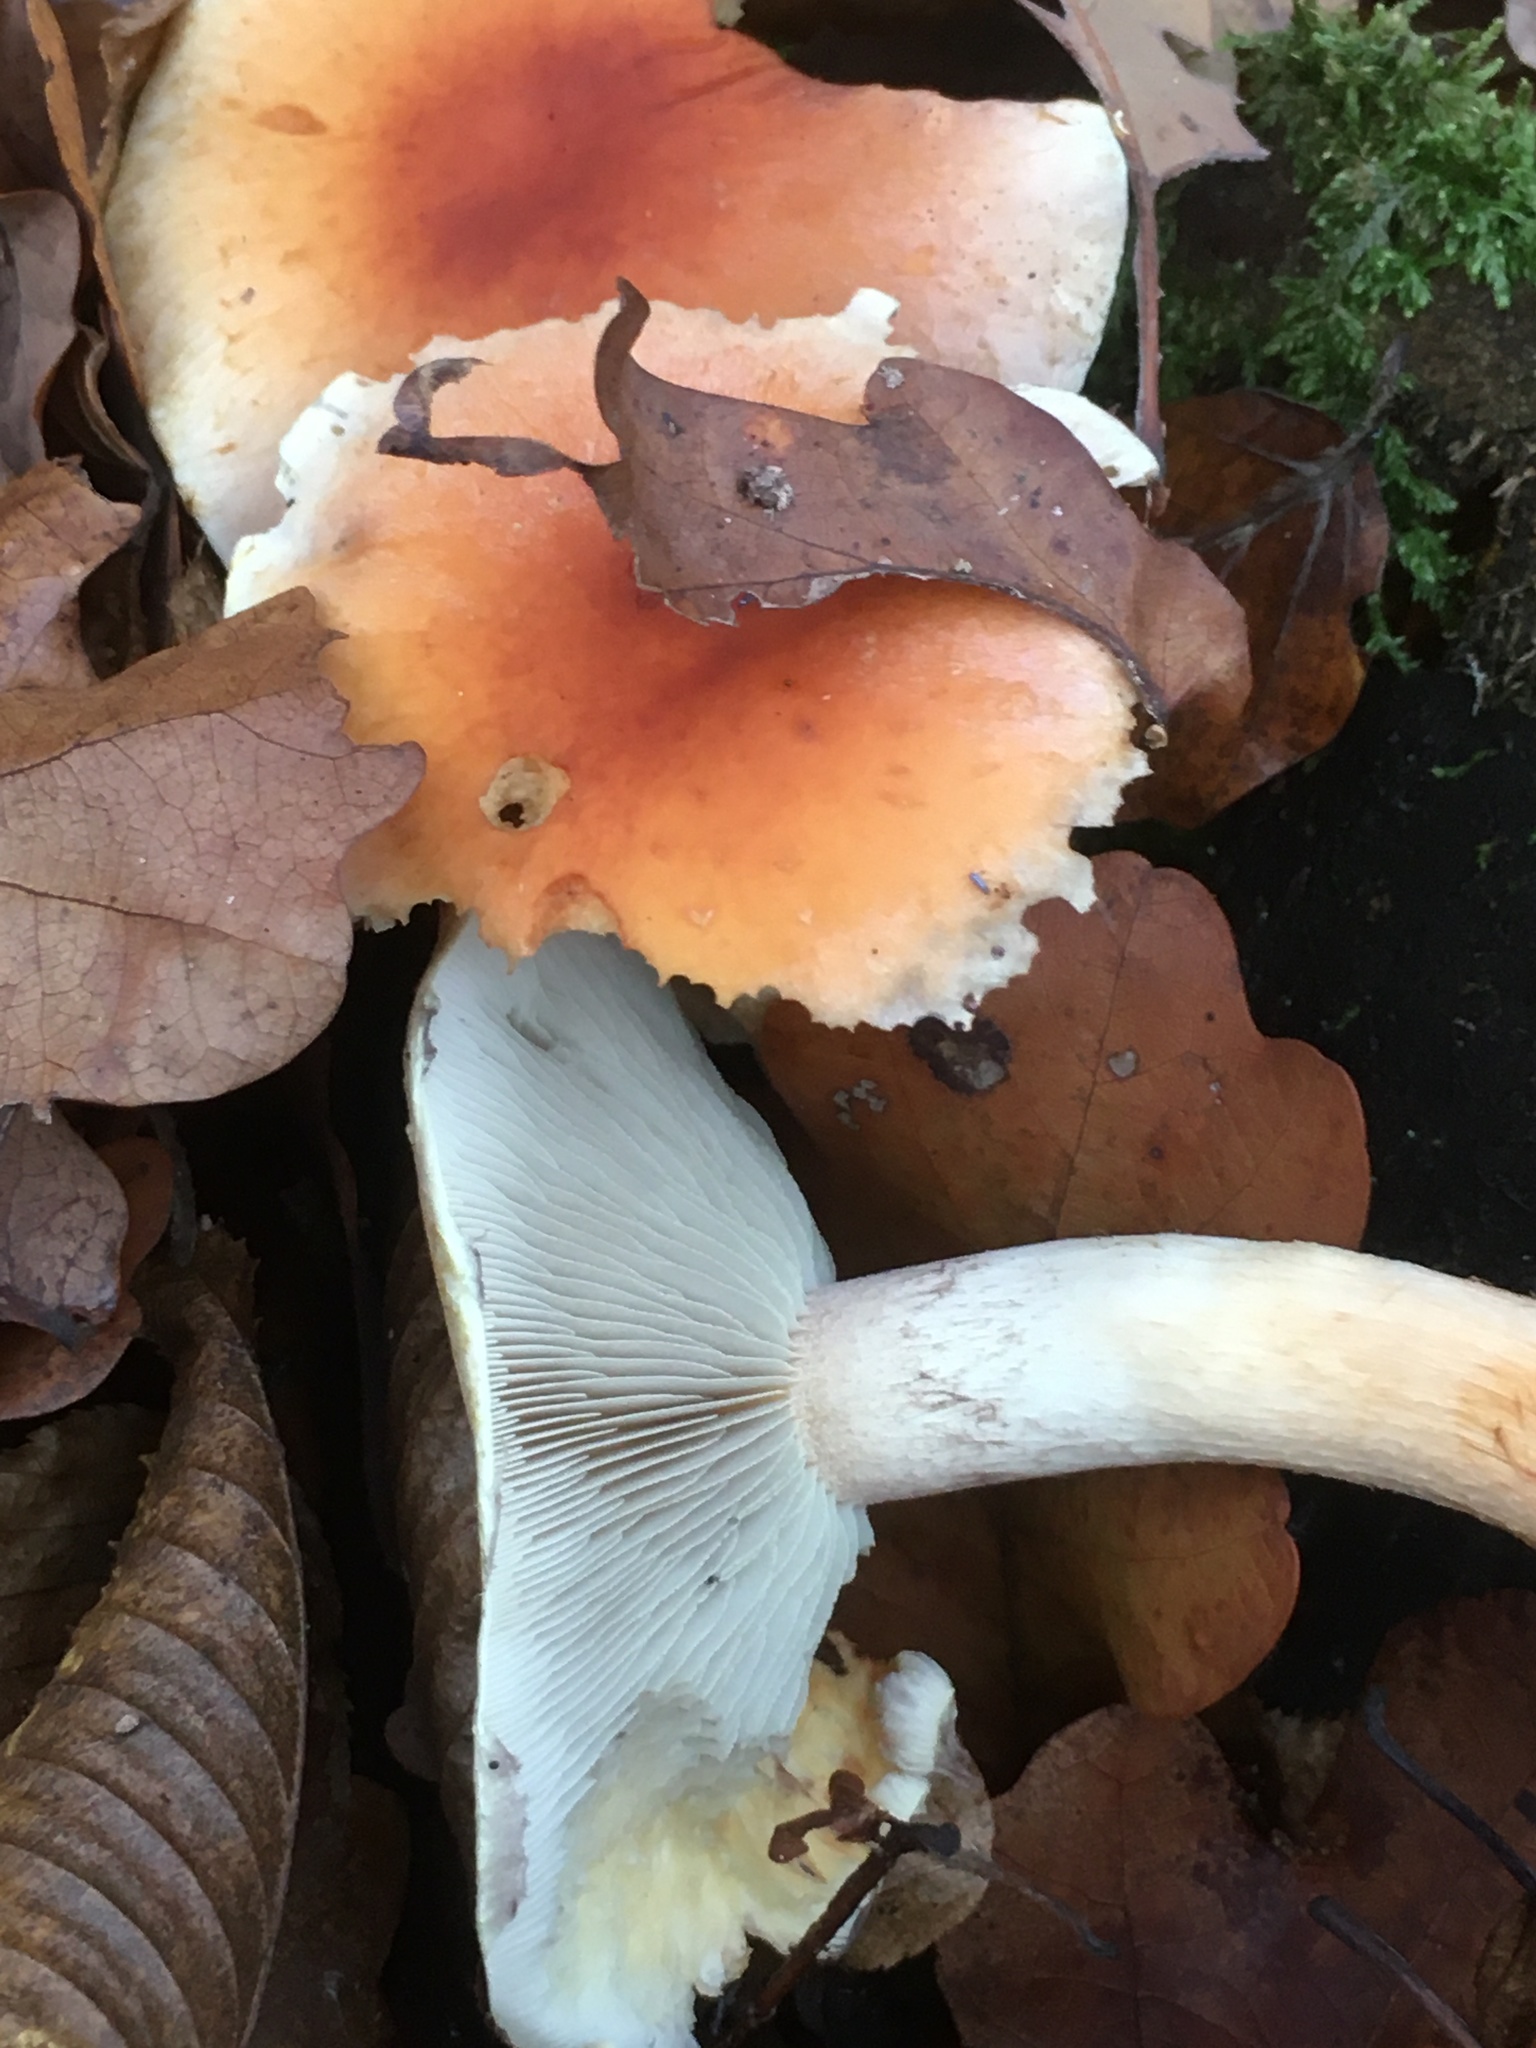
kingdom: Fungi
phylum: Basidiomycota
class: Agaricomycetes
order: Agaricales
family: Strophariaceae
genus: Hypholoma
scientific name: Hypholoma lateritium
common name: Brick caps
